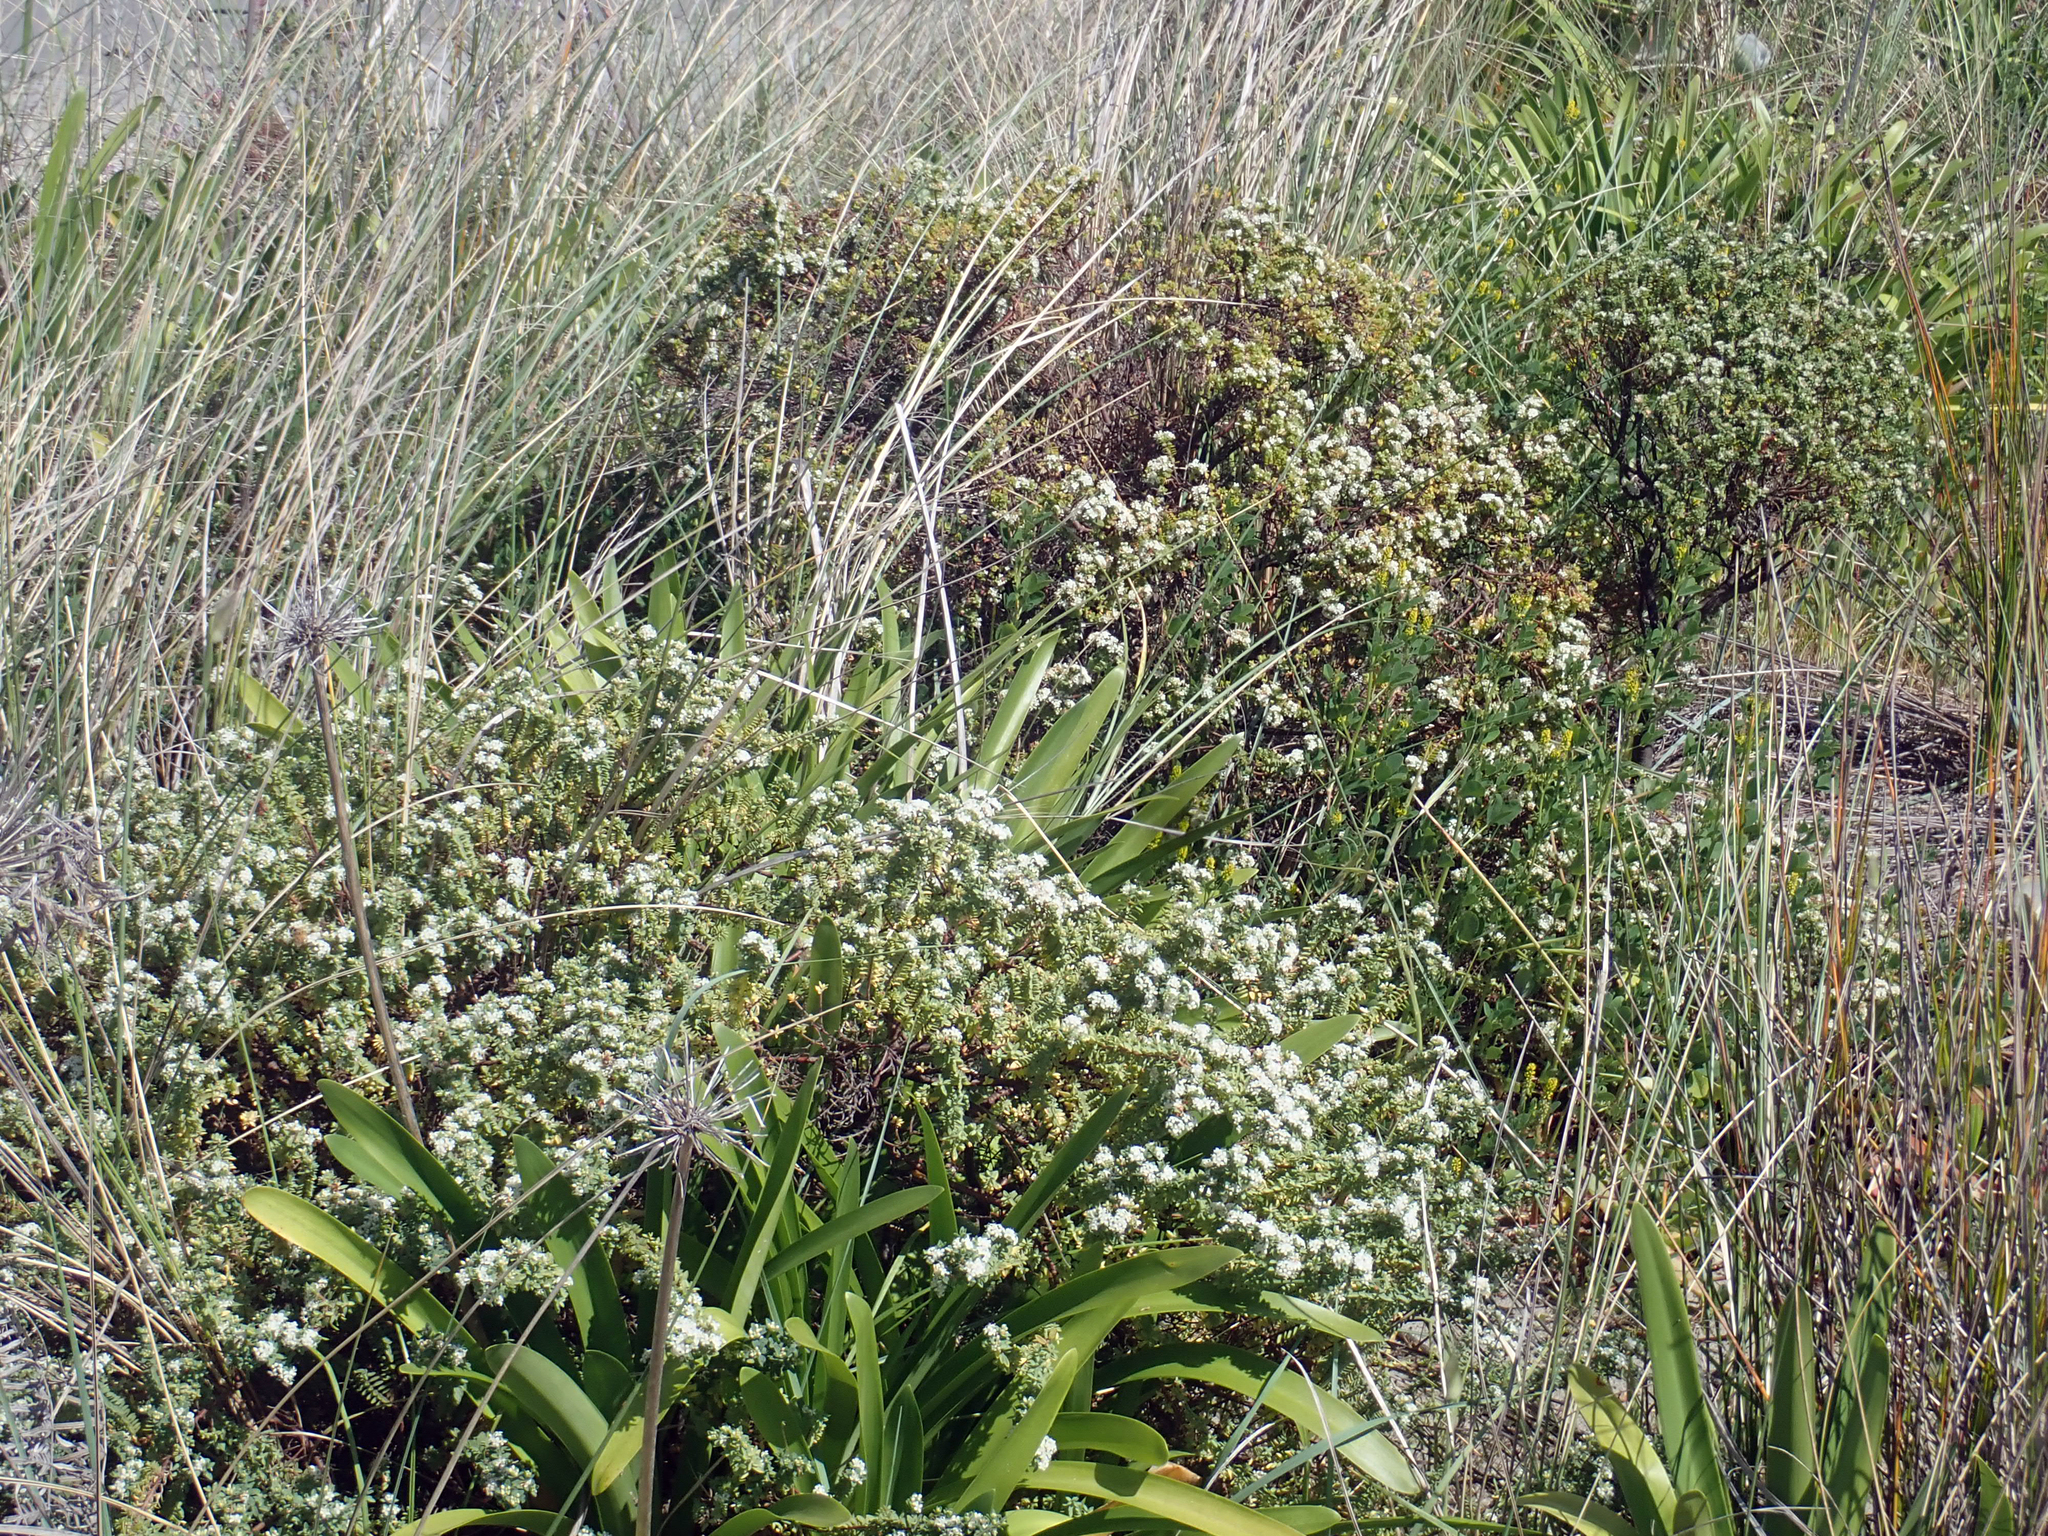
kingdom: Plantae
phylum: Tracheophyta
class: Magnoliopsida
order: Malvales
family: Thymelaeaceae
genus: Pimelea
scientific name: Pimelea orthia
